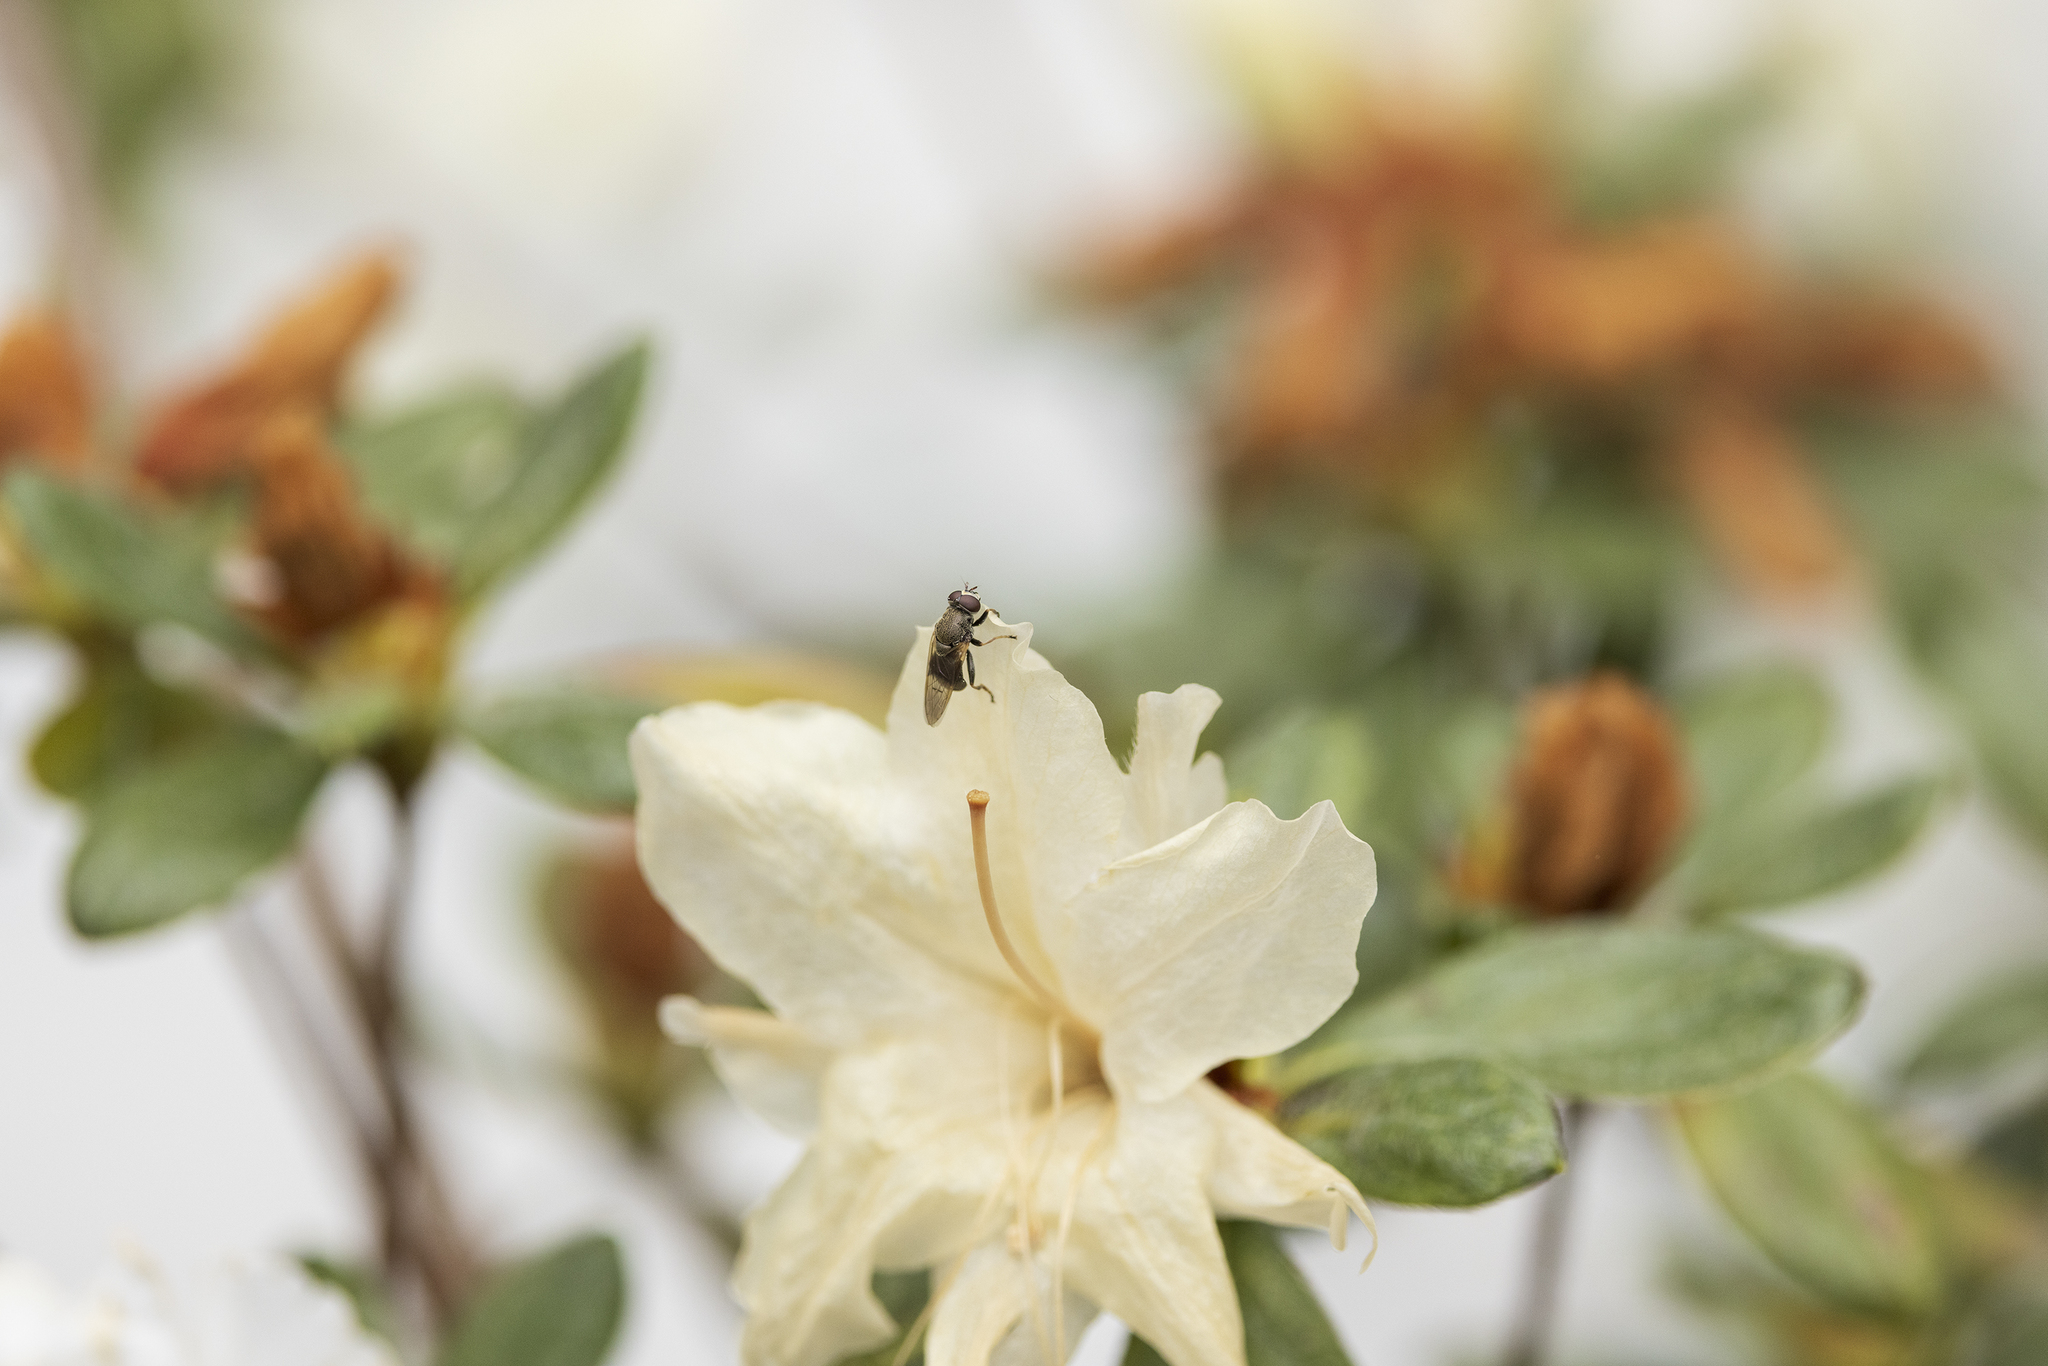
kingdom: Animalia
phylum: Arthropoda
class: Insecta
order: Diptera
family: Syrphidae
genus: Myolepta
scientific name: Myolepta strigilata
